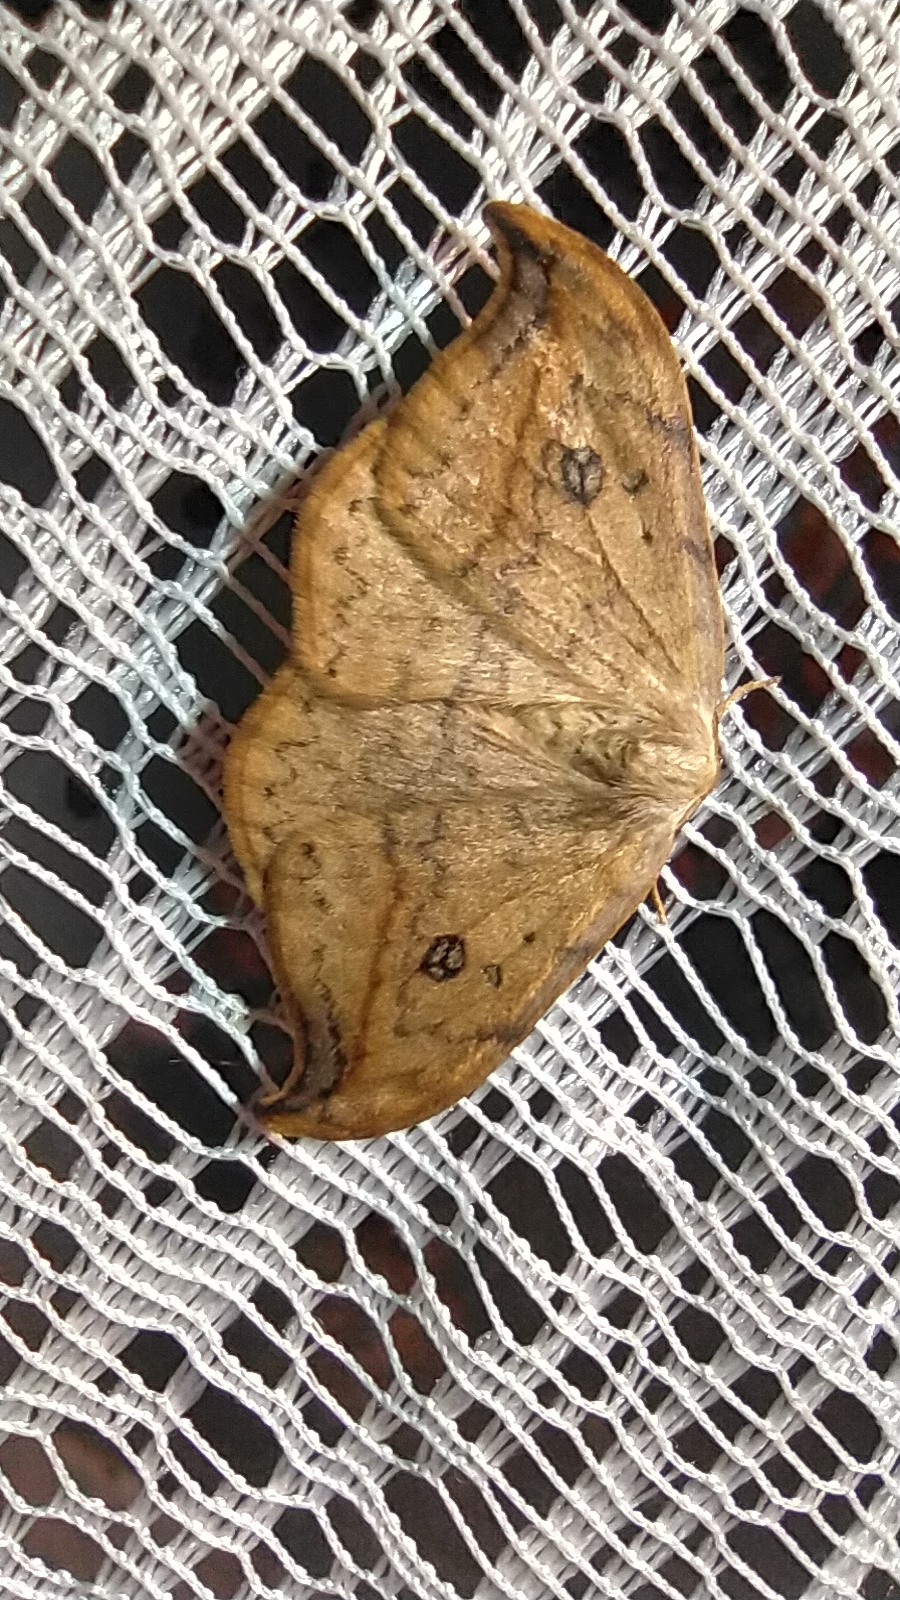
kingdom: Animalia
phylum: Arthropoda
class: Insecta
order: Lepidoptera
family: Drepanidae
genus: Drepana
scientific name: Drepana falcataria
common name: Pebble hook-tip
